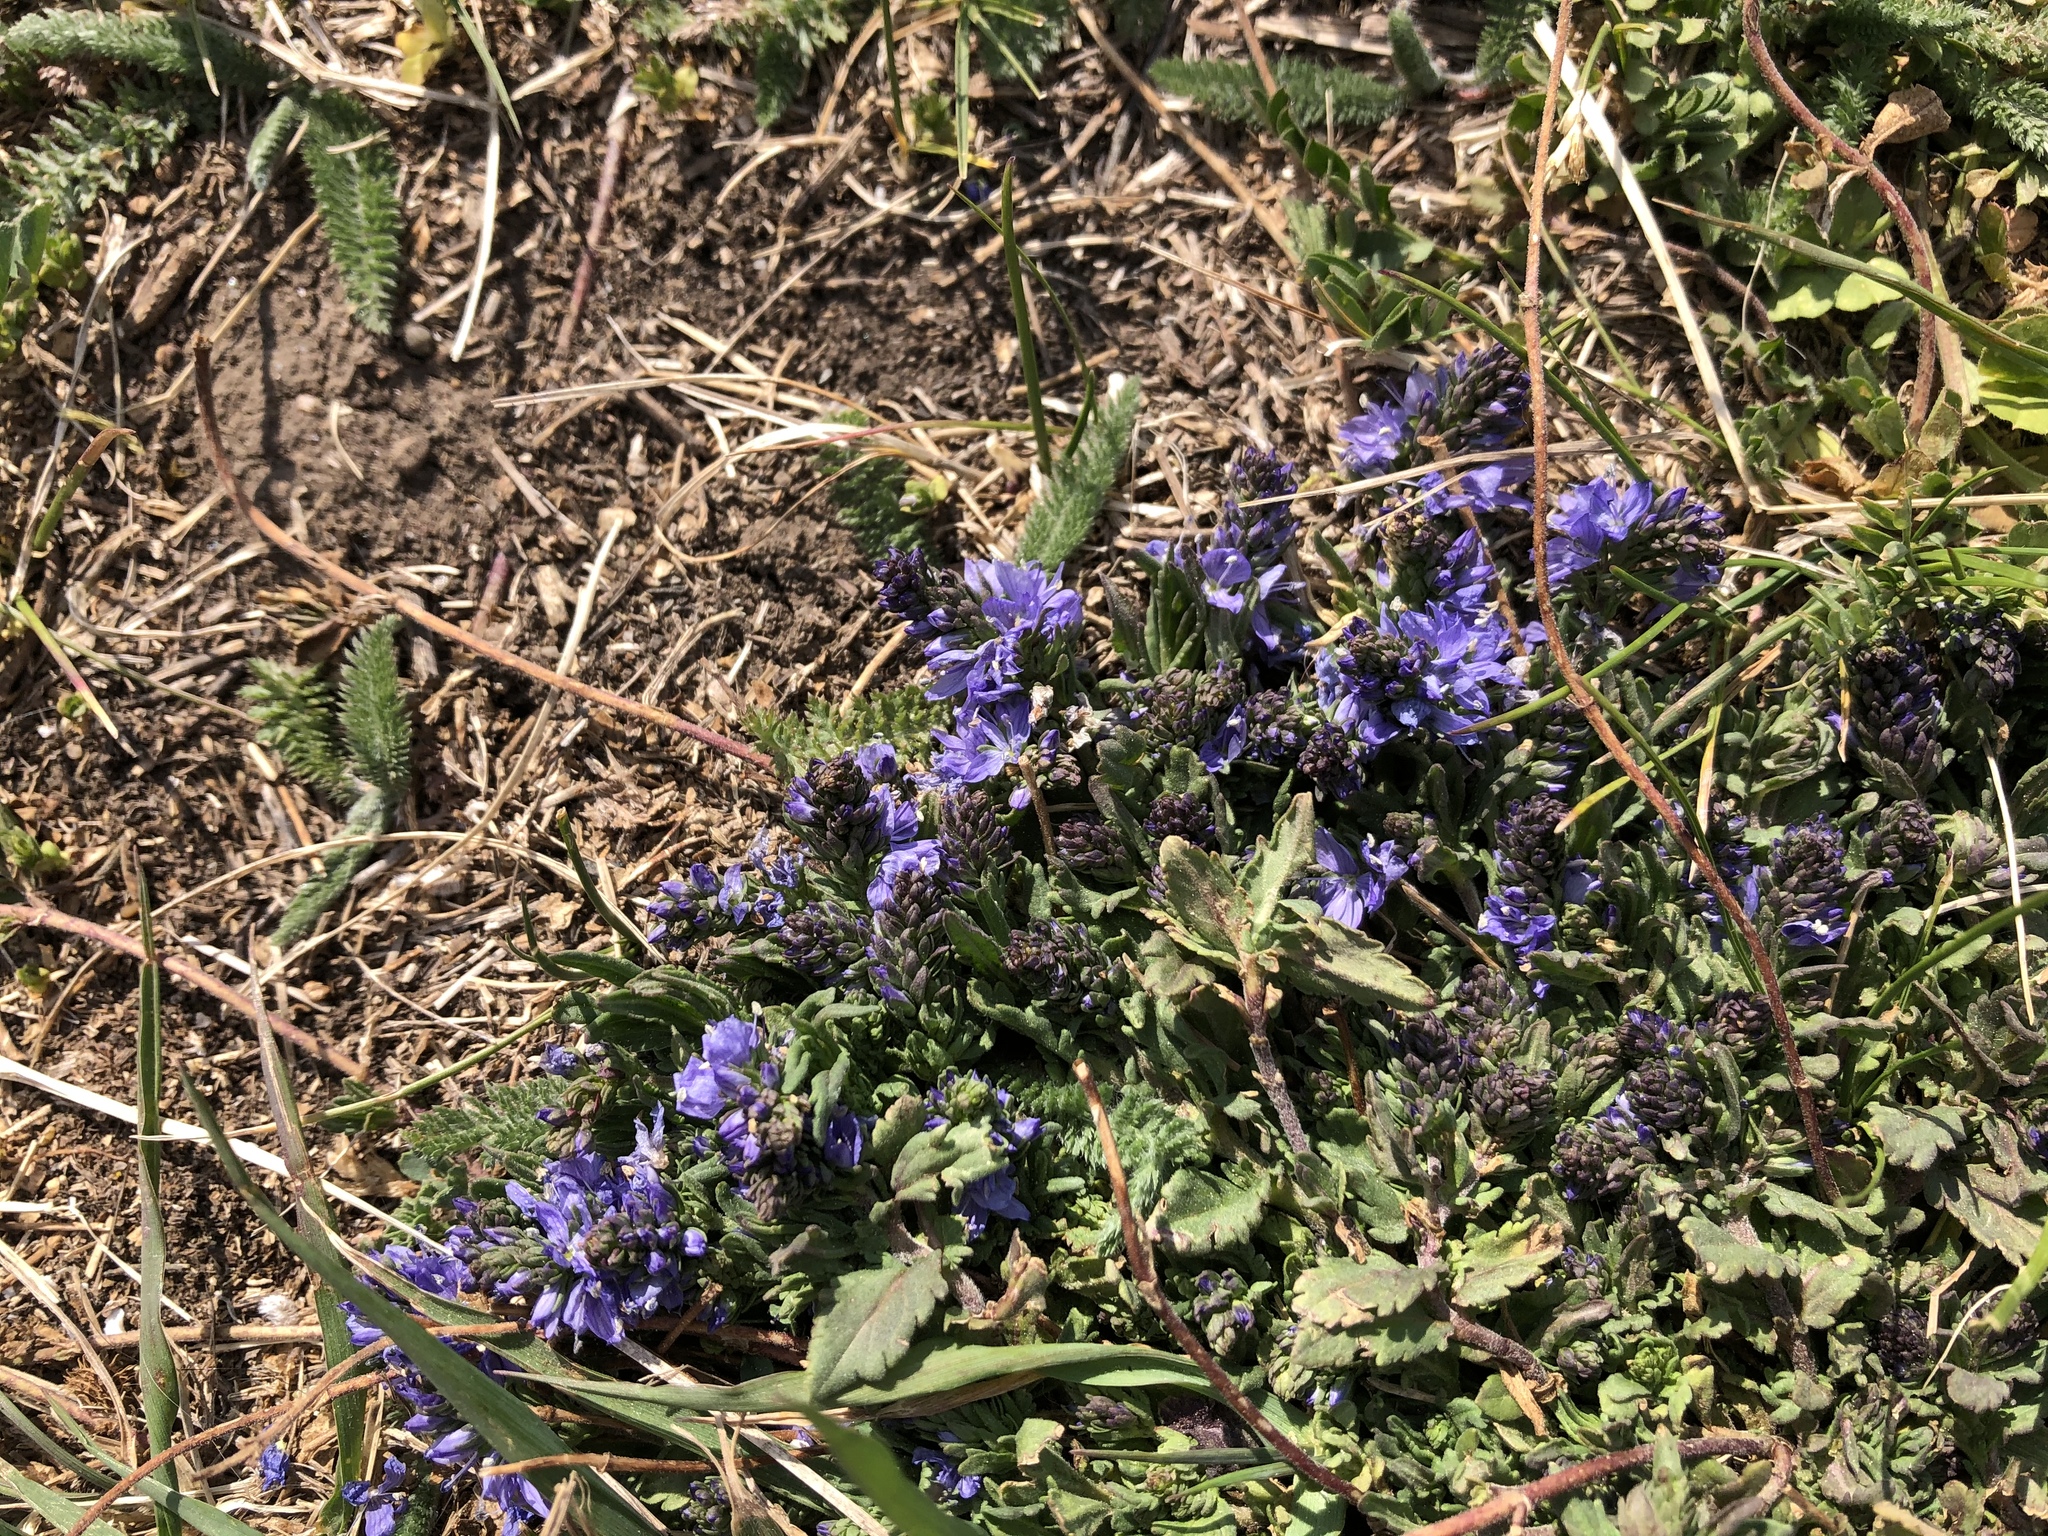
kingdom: Plantae
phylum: Tracheophyta
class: Magnoliopsida
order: Lamiales
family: Plantaginaceae
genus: Veronica
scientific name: Veronica prostrata
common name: Prostrate speedwell
